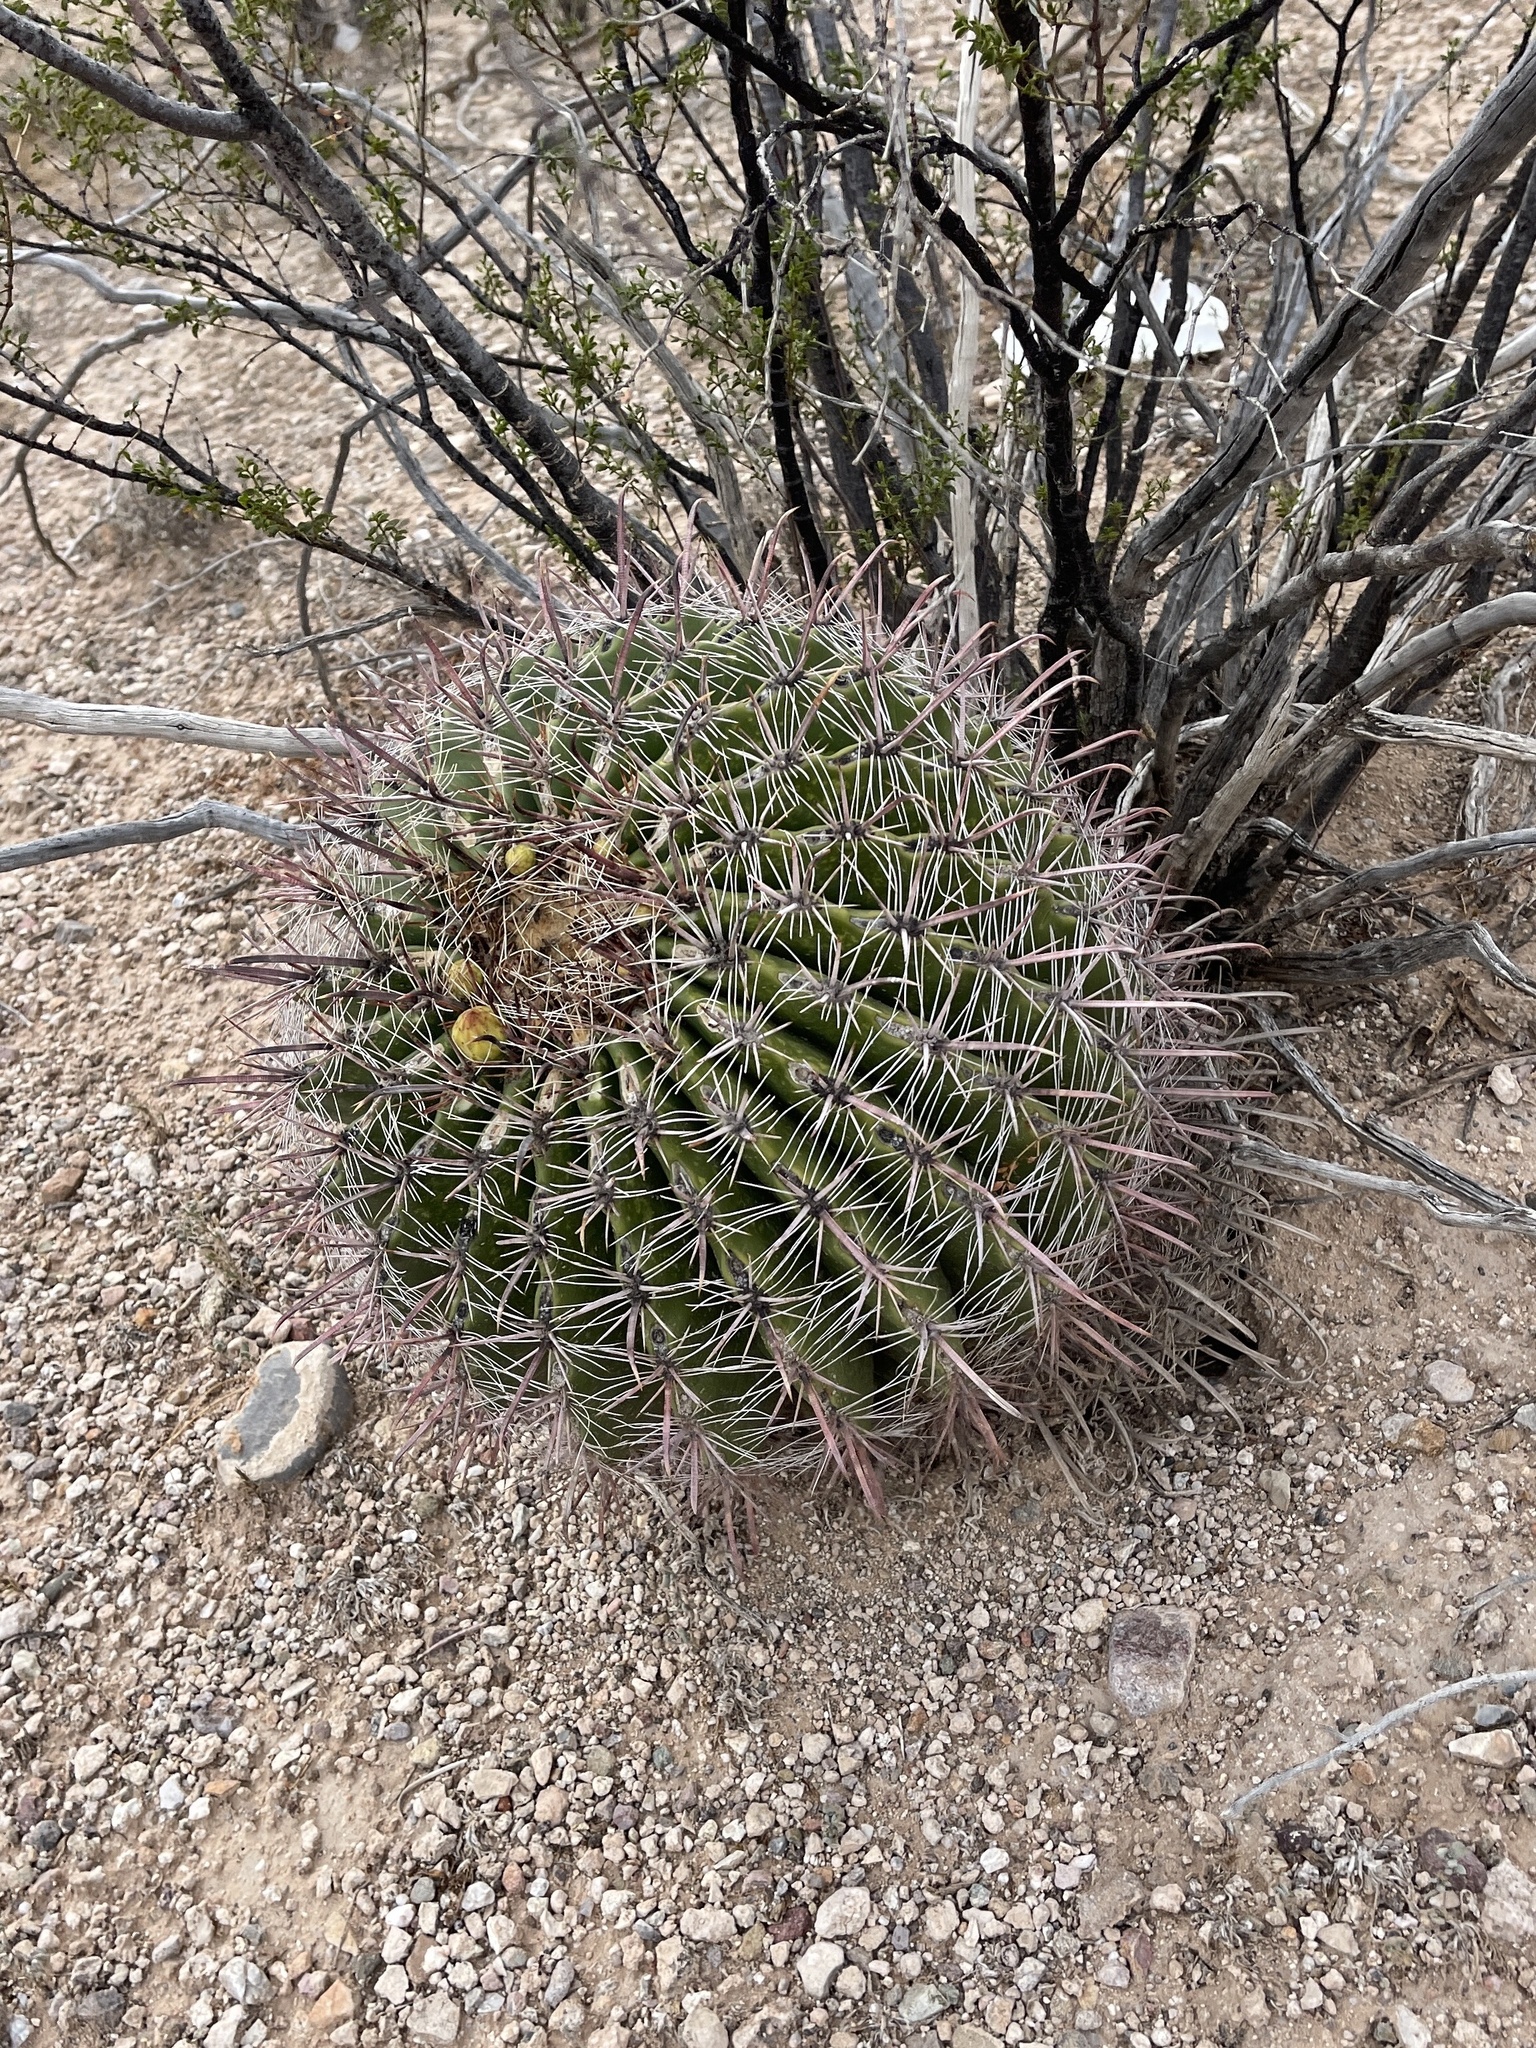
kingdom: Plantae
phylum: Tracheophyta
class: Magnoliopsida
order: Caryophyllales
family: Cactaceae
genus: Ferocactus
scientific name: Ferocactus wislizeni
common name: Candy barrel cactus
